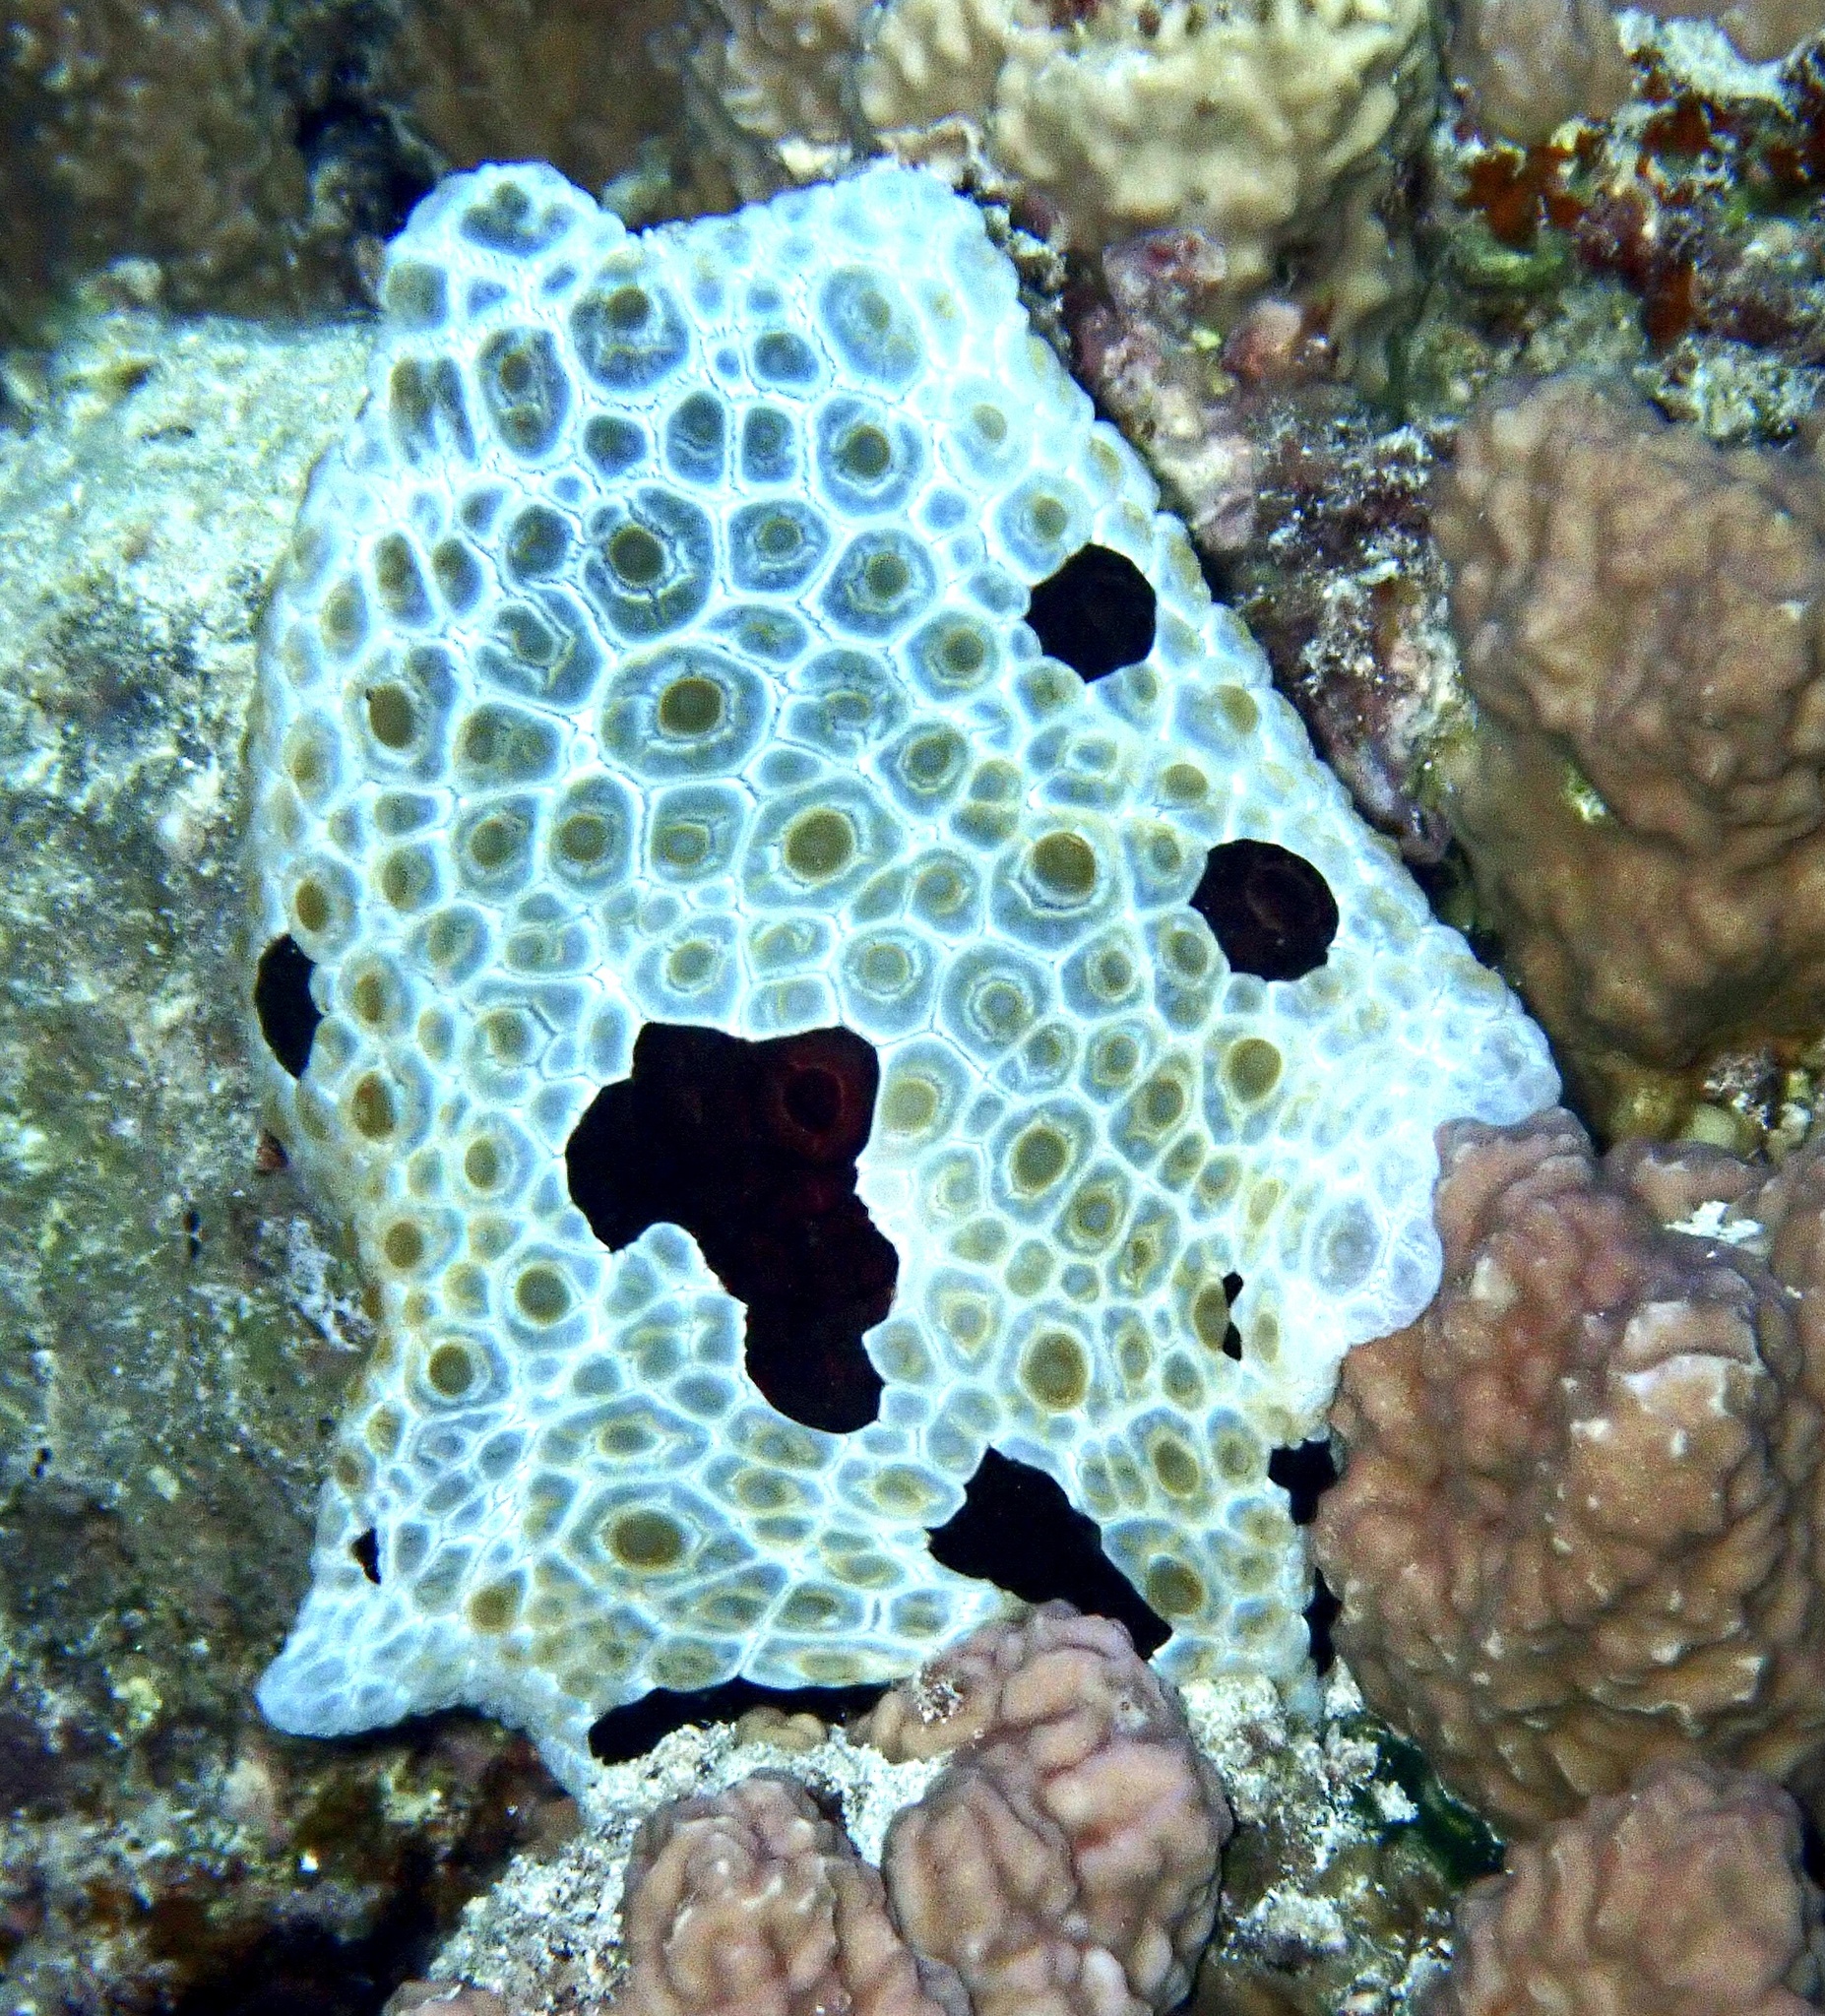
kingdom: Animalia
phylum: Mollusca
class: Gastropoda
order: Pleurobranchida
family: Pleurobranchidae
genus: Pleurobranchus
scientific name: Pleurobranchus grandis
